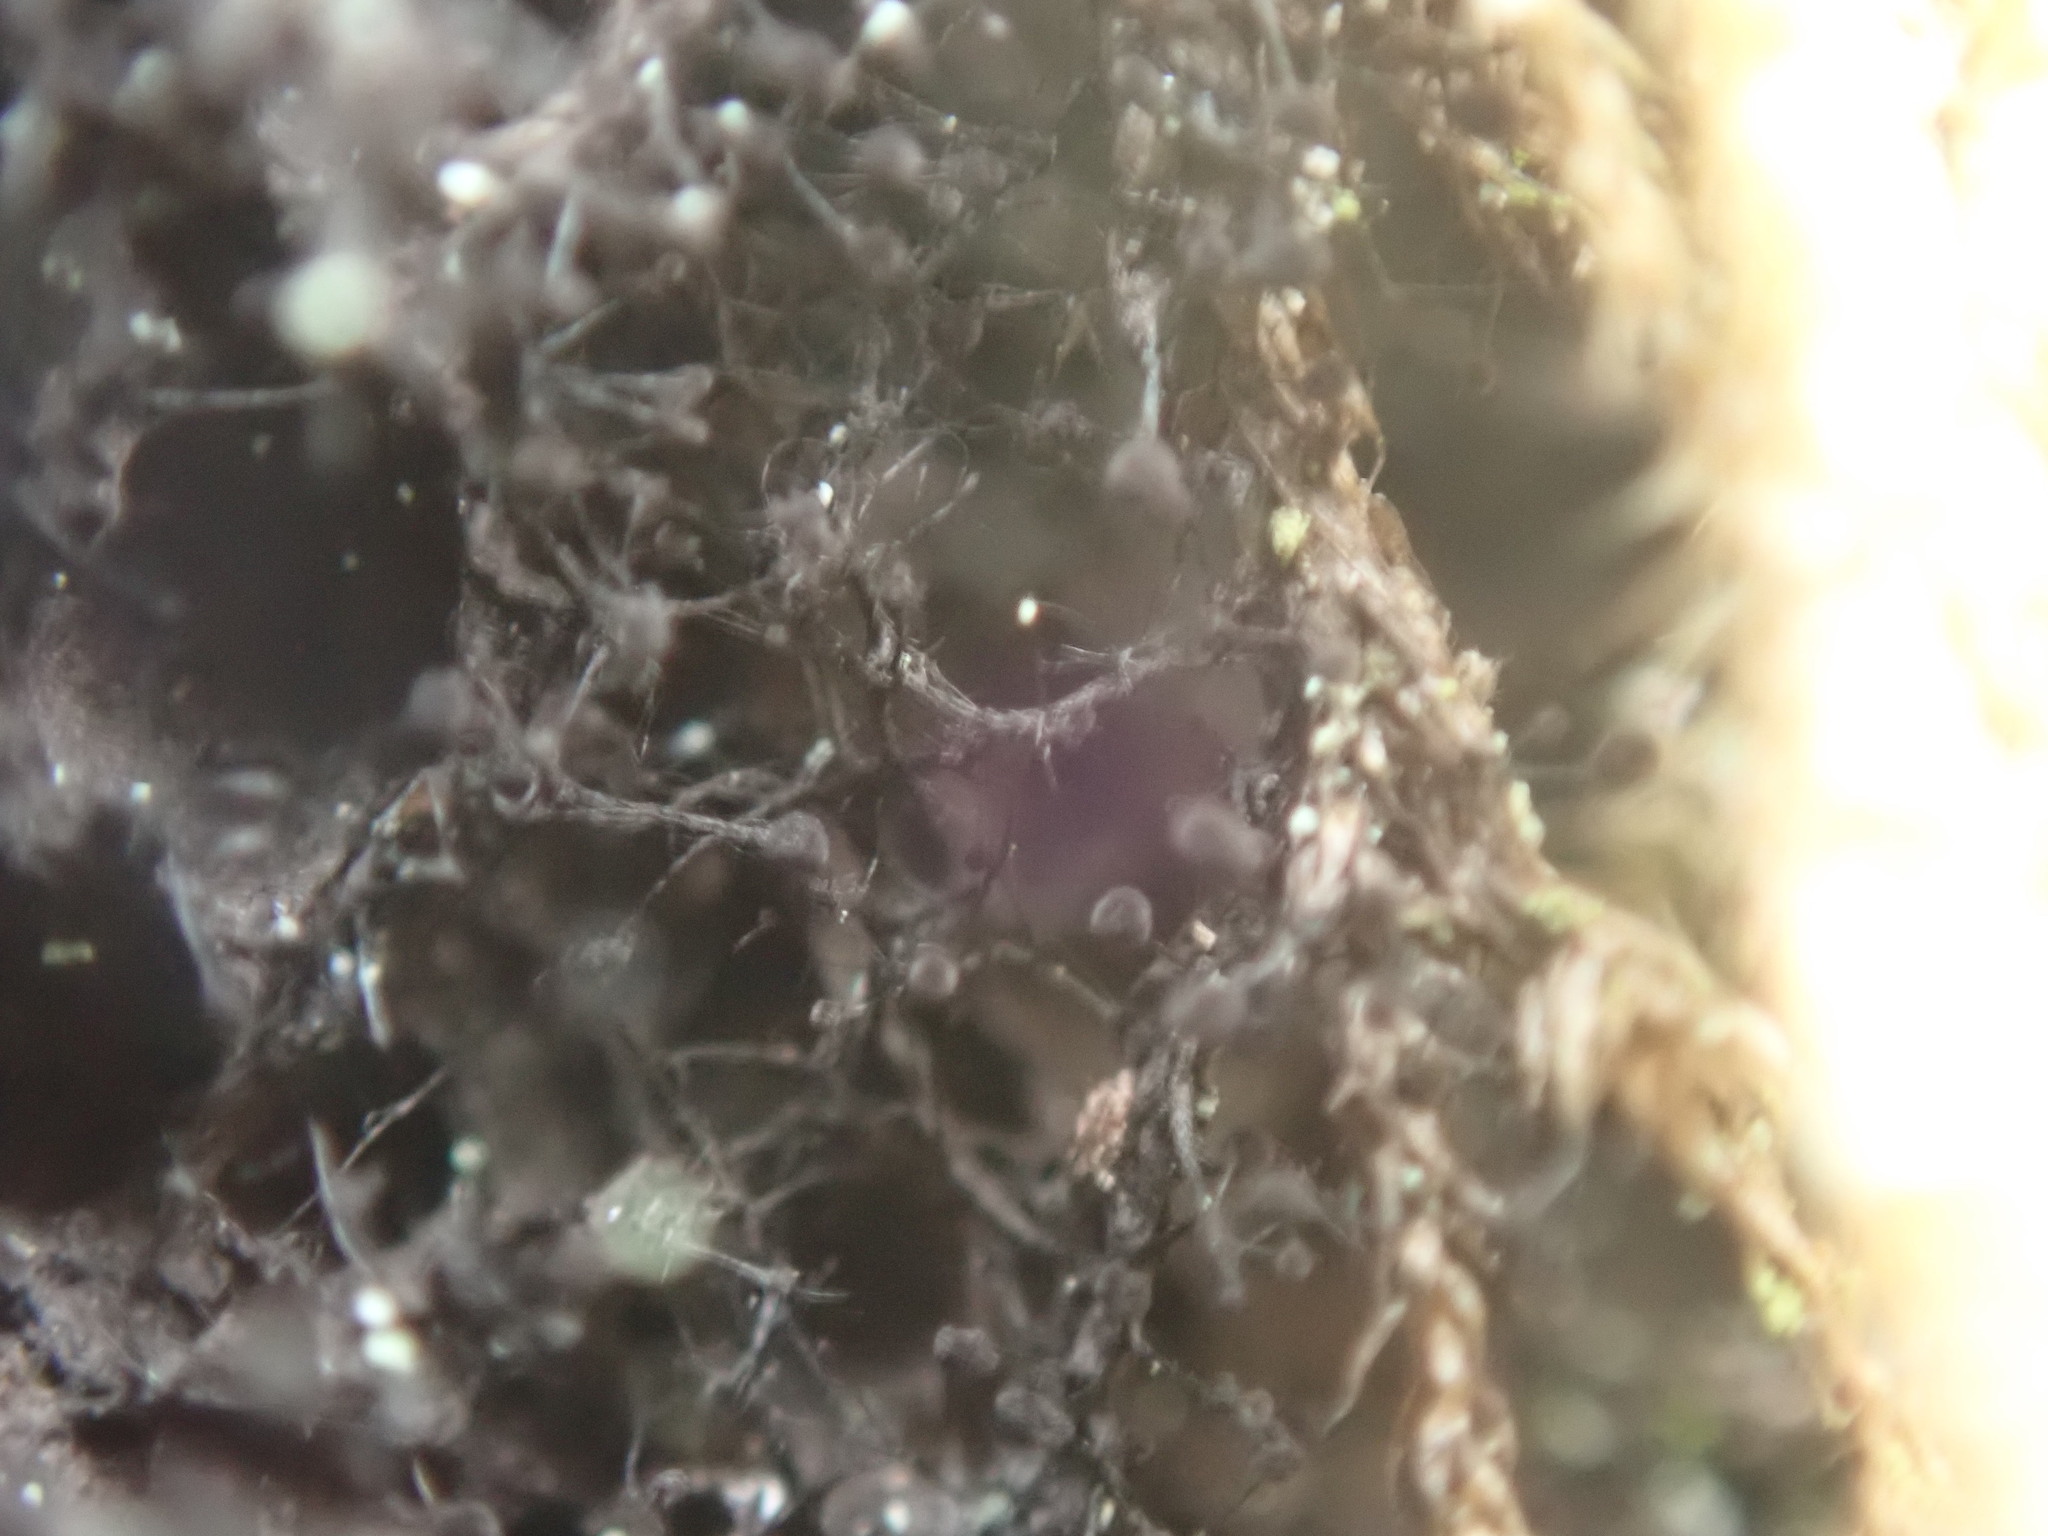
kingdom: Fungi
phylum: Ascomycota
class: Leotiomycetes
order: Helotiales
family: Amorphothecaceae
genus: Sorocybe
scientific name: Sorocybe resinae
